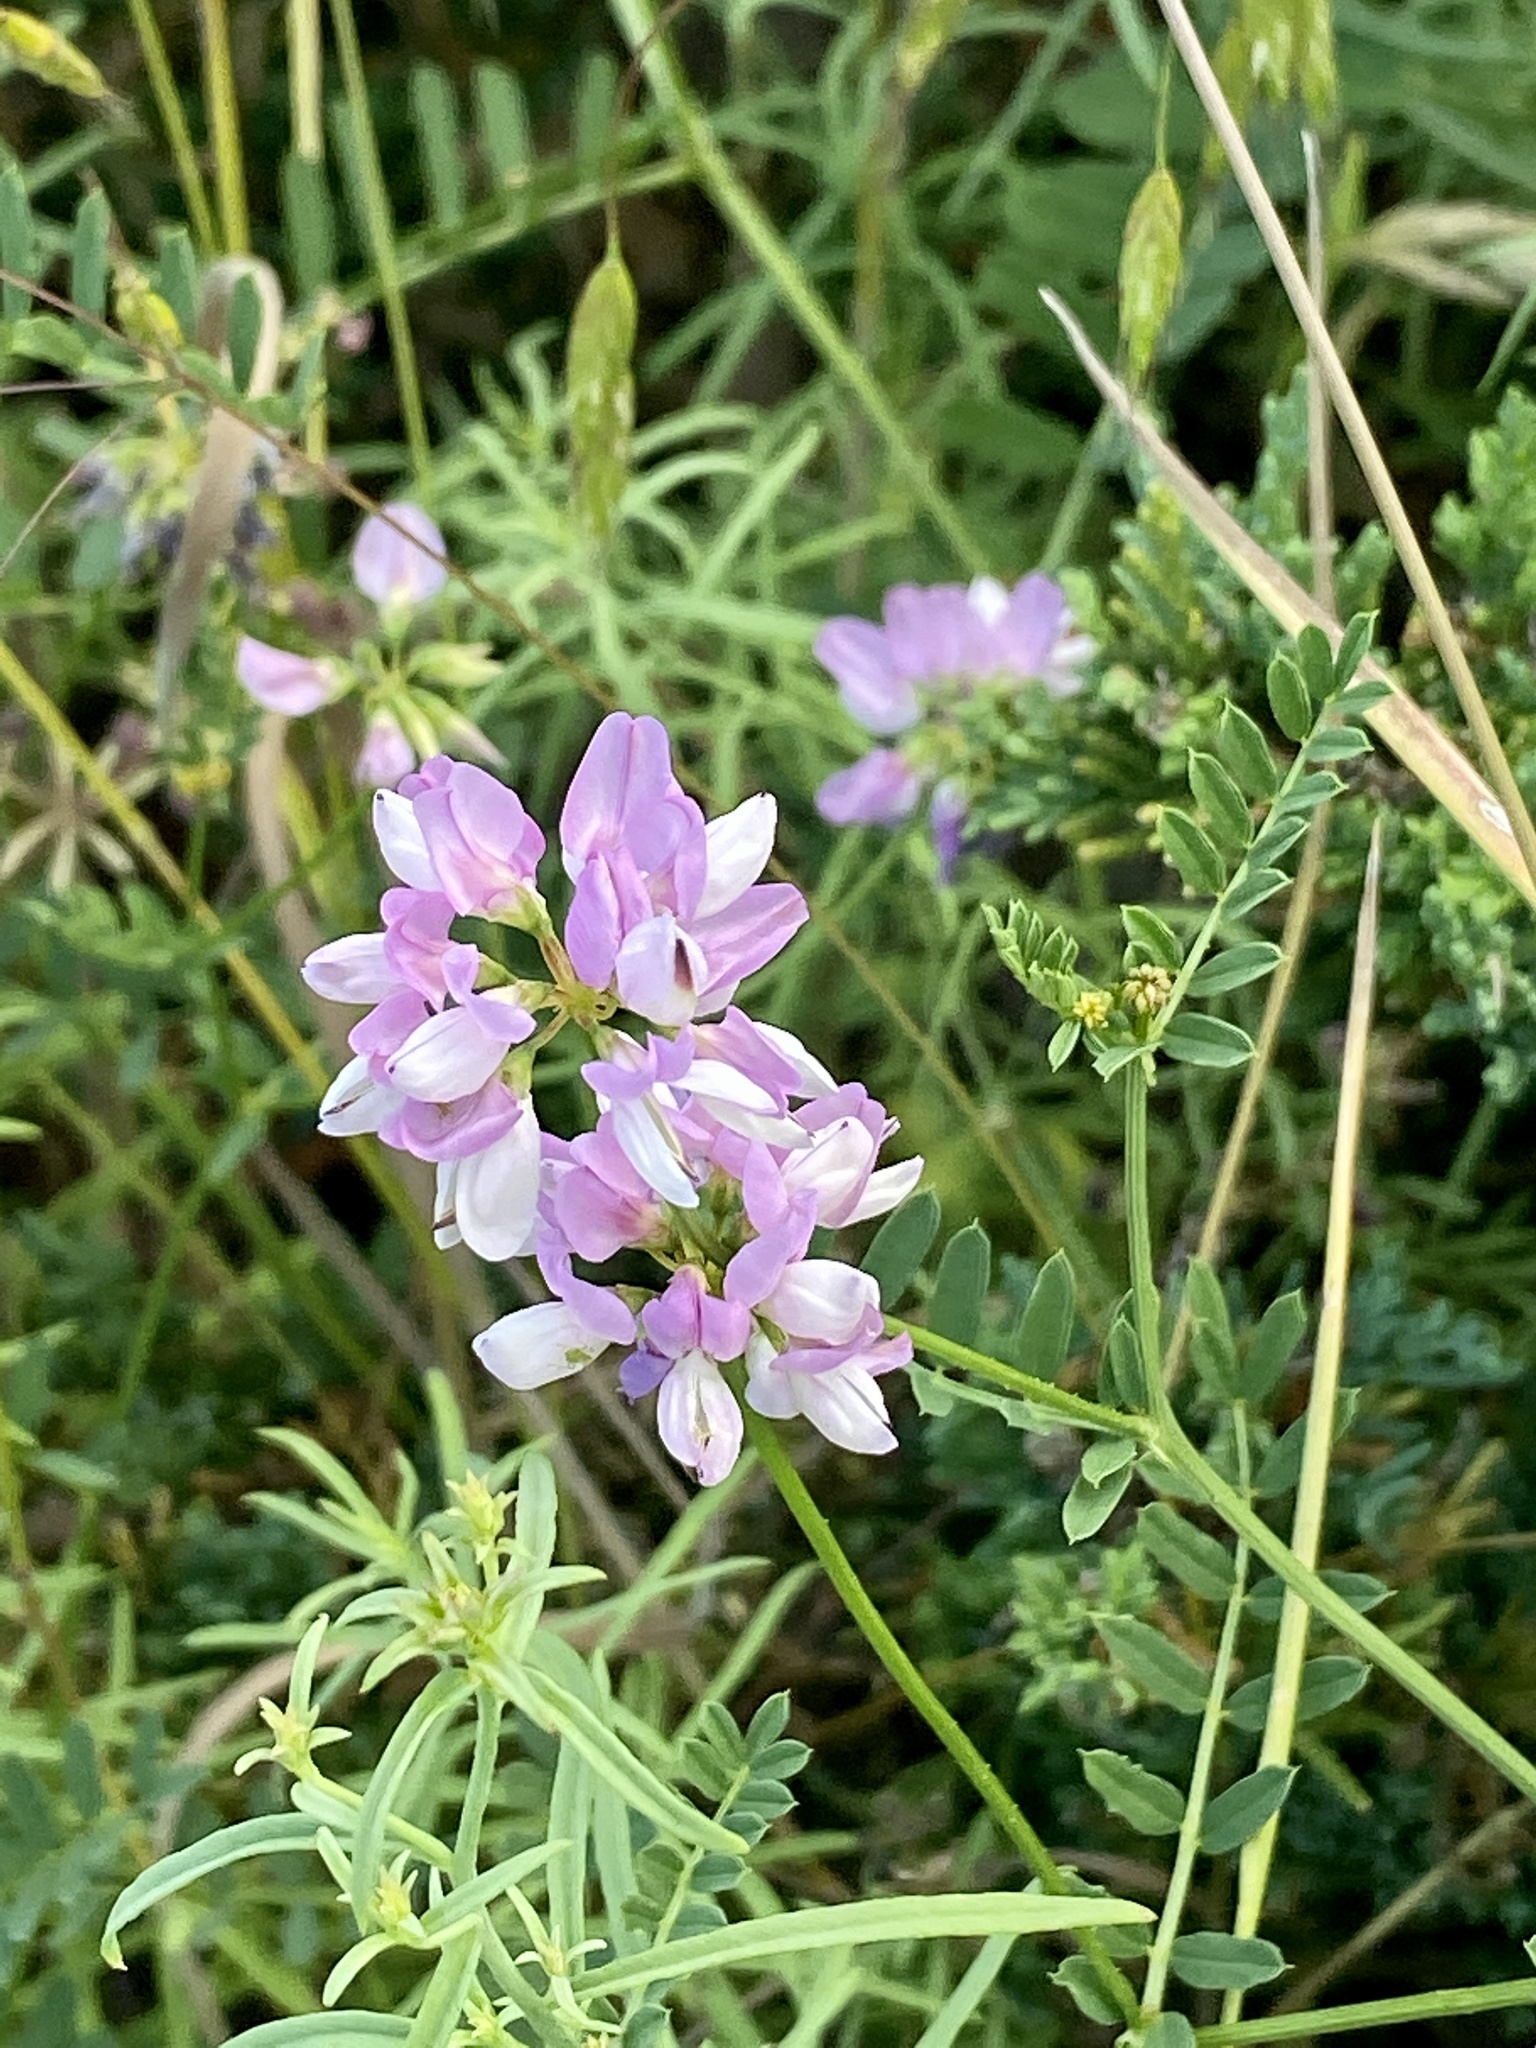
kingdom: Plantae
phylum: Tracheophyta
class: Magnoliopsida
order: Fabales
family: Fabaceae
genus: Coronilla
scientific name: Coronilla varia
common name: Crownvetch
